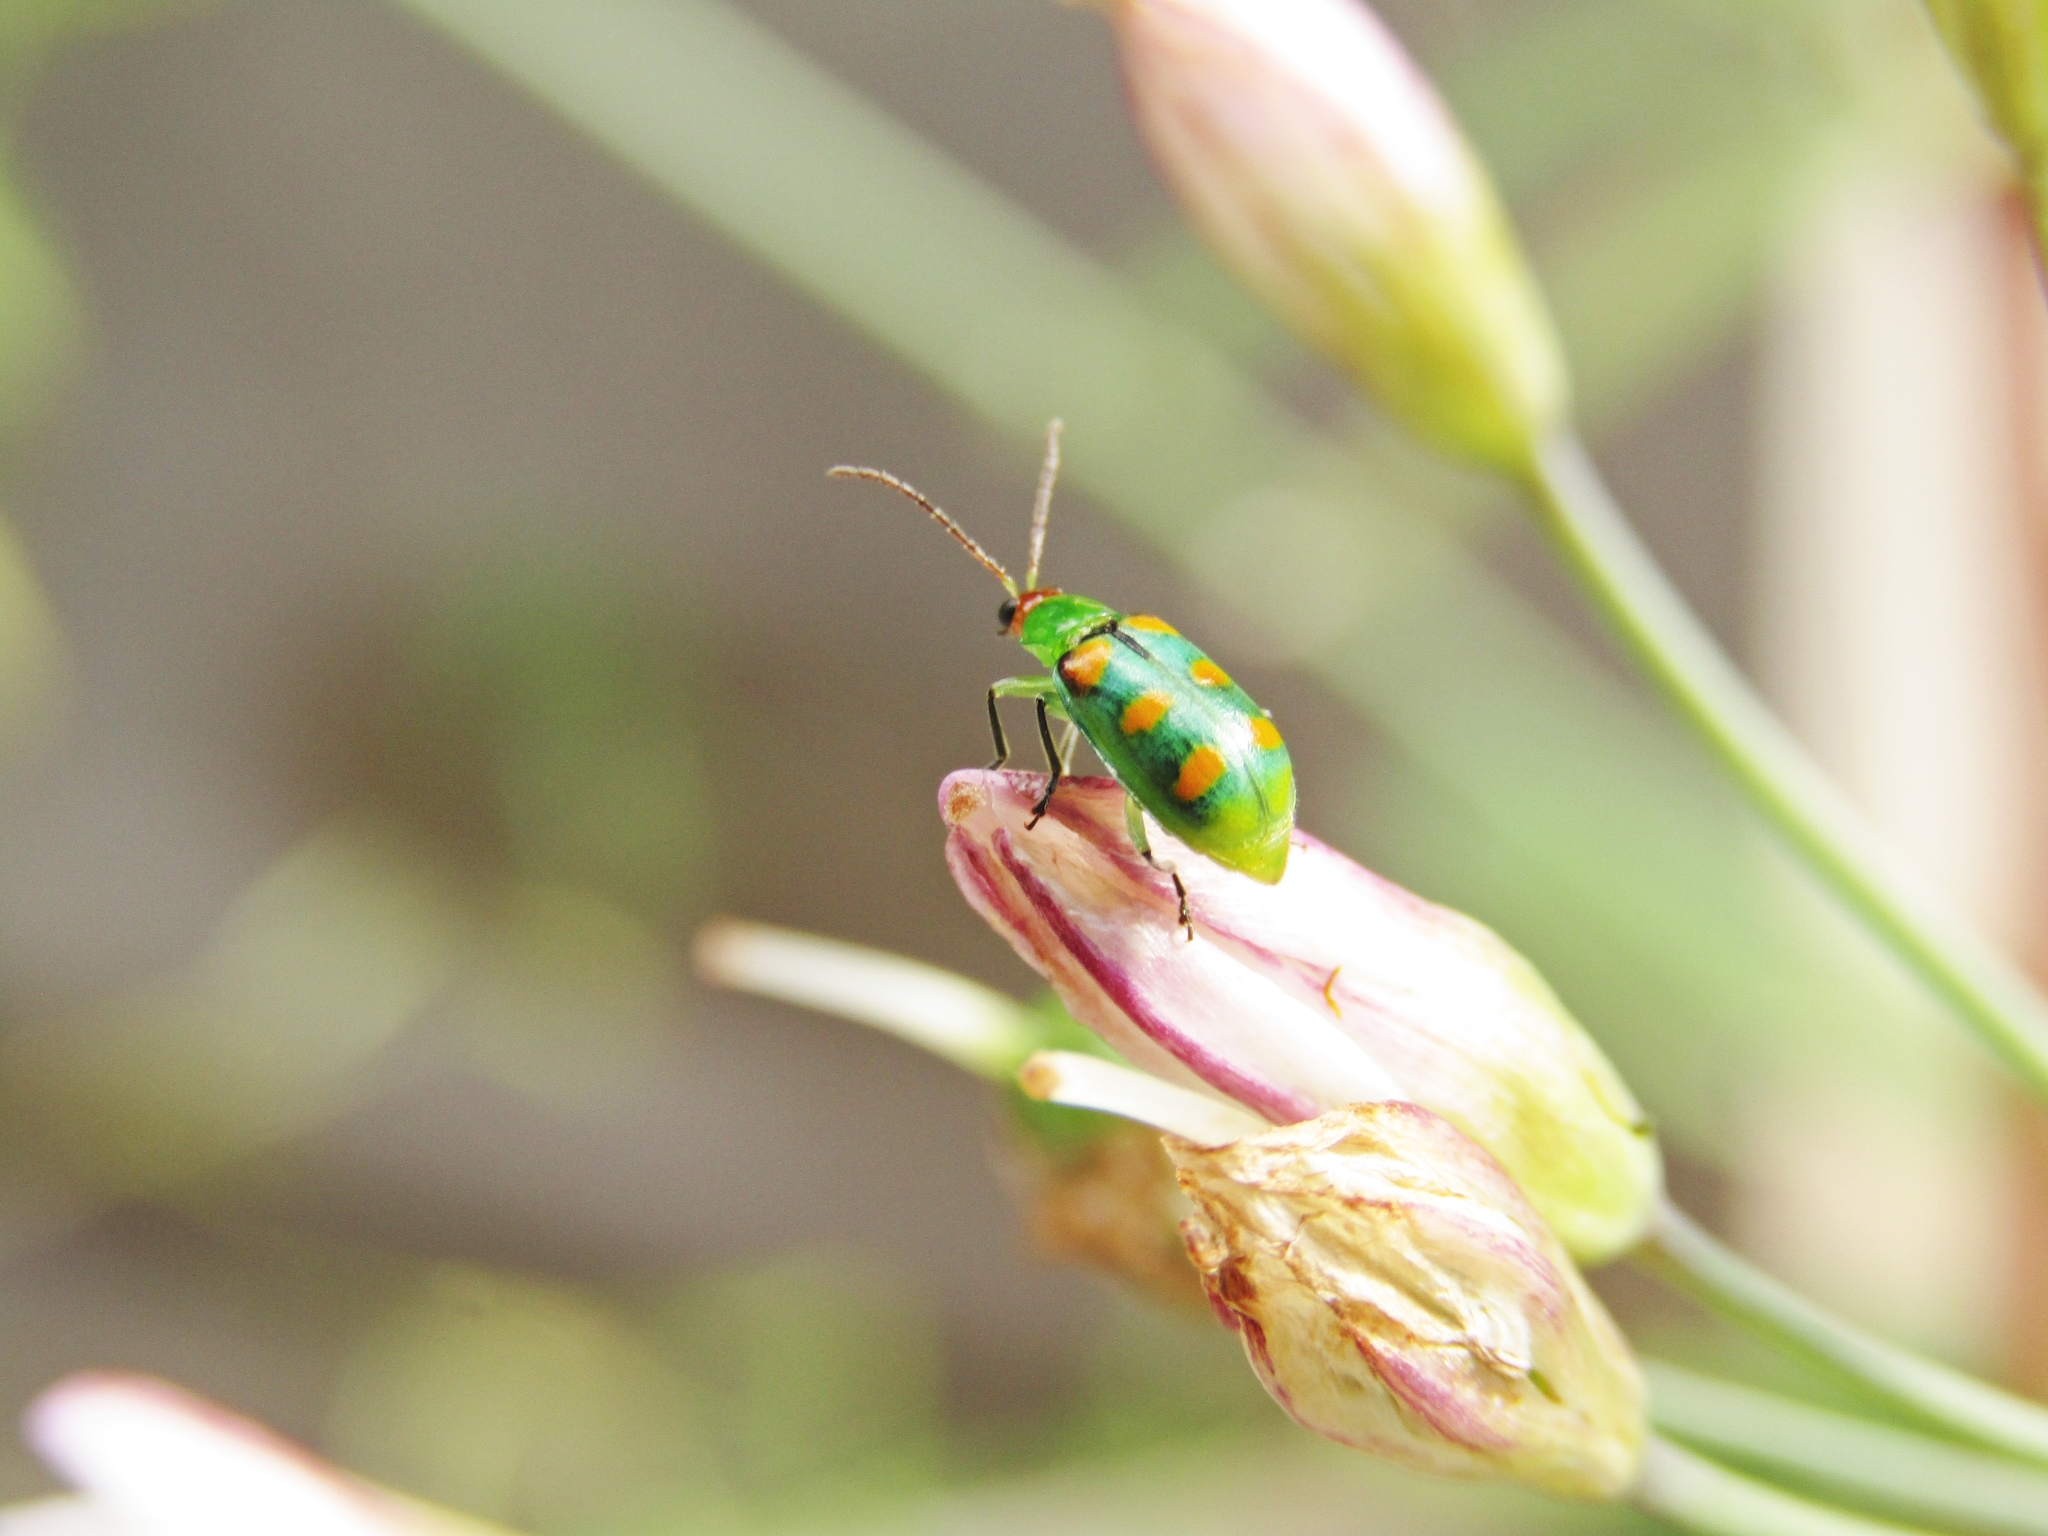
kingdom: Animalia
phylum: Arthropoda
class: Insecta
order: Coleoptera
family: Chrysomelidae
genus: Diabrotica
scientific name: Diabrotica speciosa
